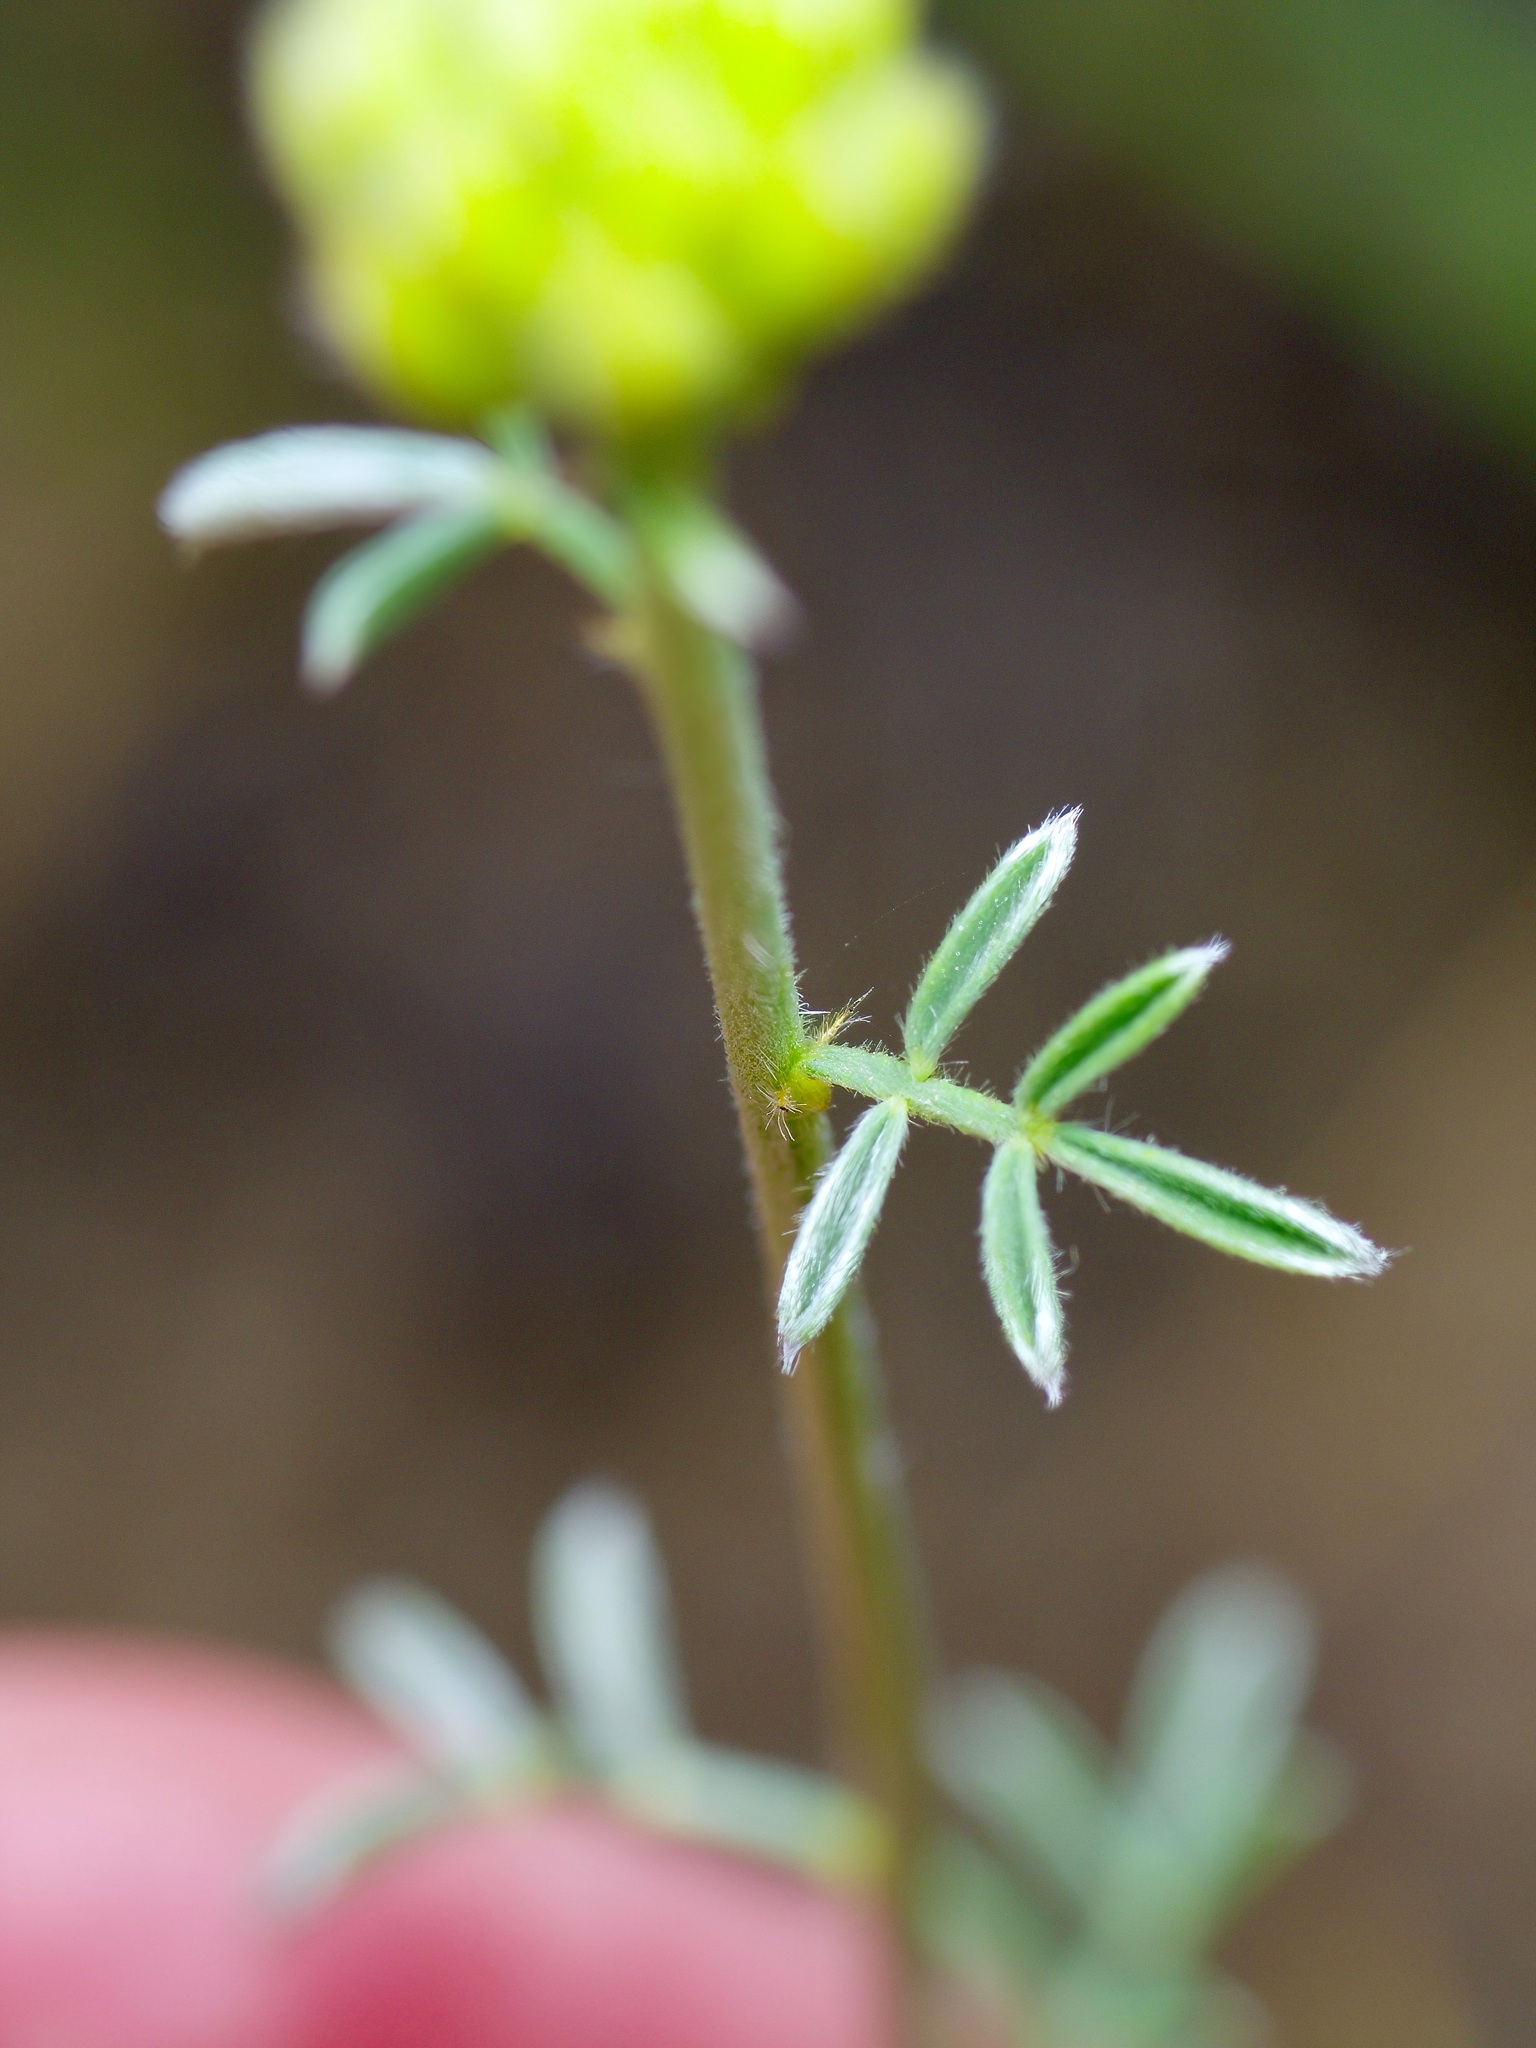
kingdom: Plantae
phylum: Tracheophyta
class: Magnoliopsida
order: Fabales
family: Fabaceae
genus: Dalea
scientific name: Dalea aurea
